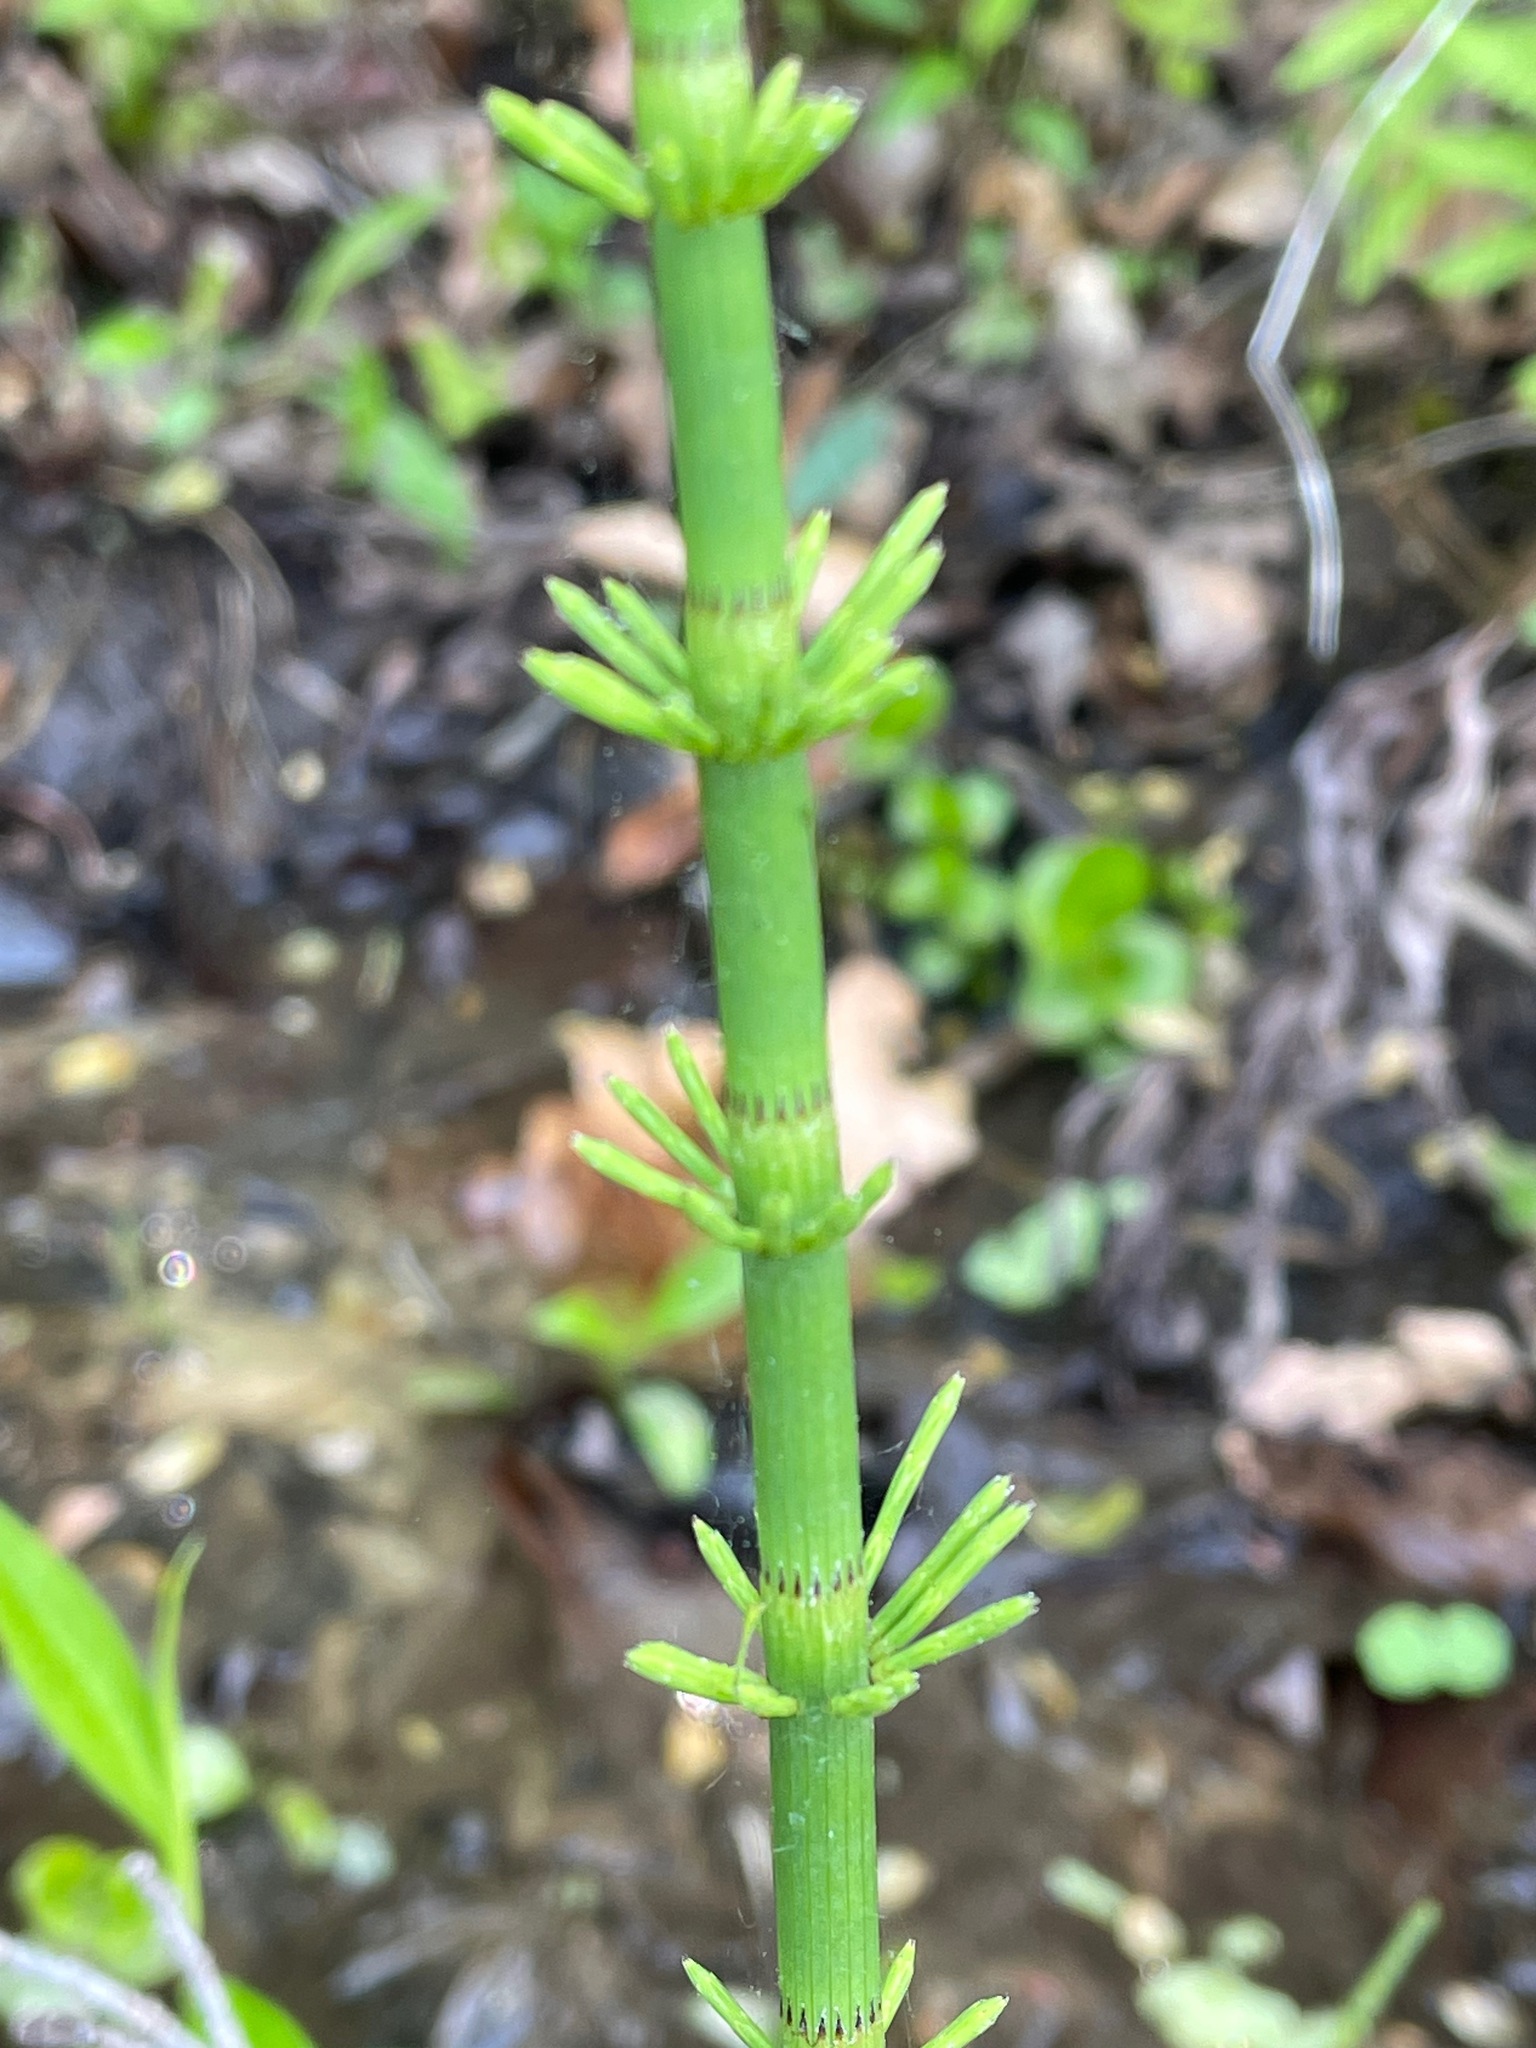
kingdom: Plantae
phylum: Tracheophyta
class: Polypodiopsida
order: Equisetales
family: Equisetaceae
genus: Equisetum
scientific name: Equisetum fluviatile
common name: Water horsetail
